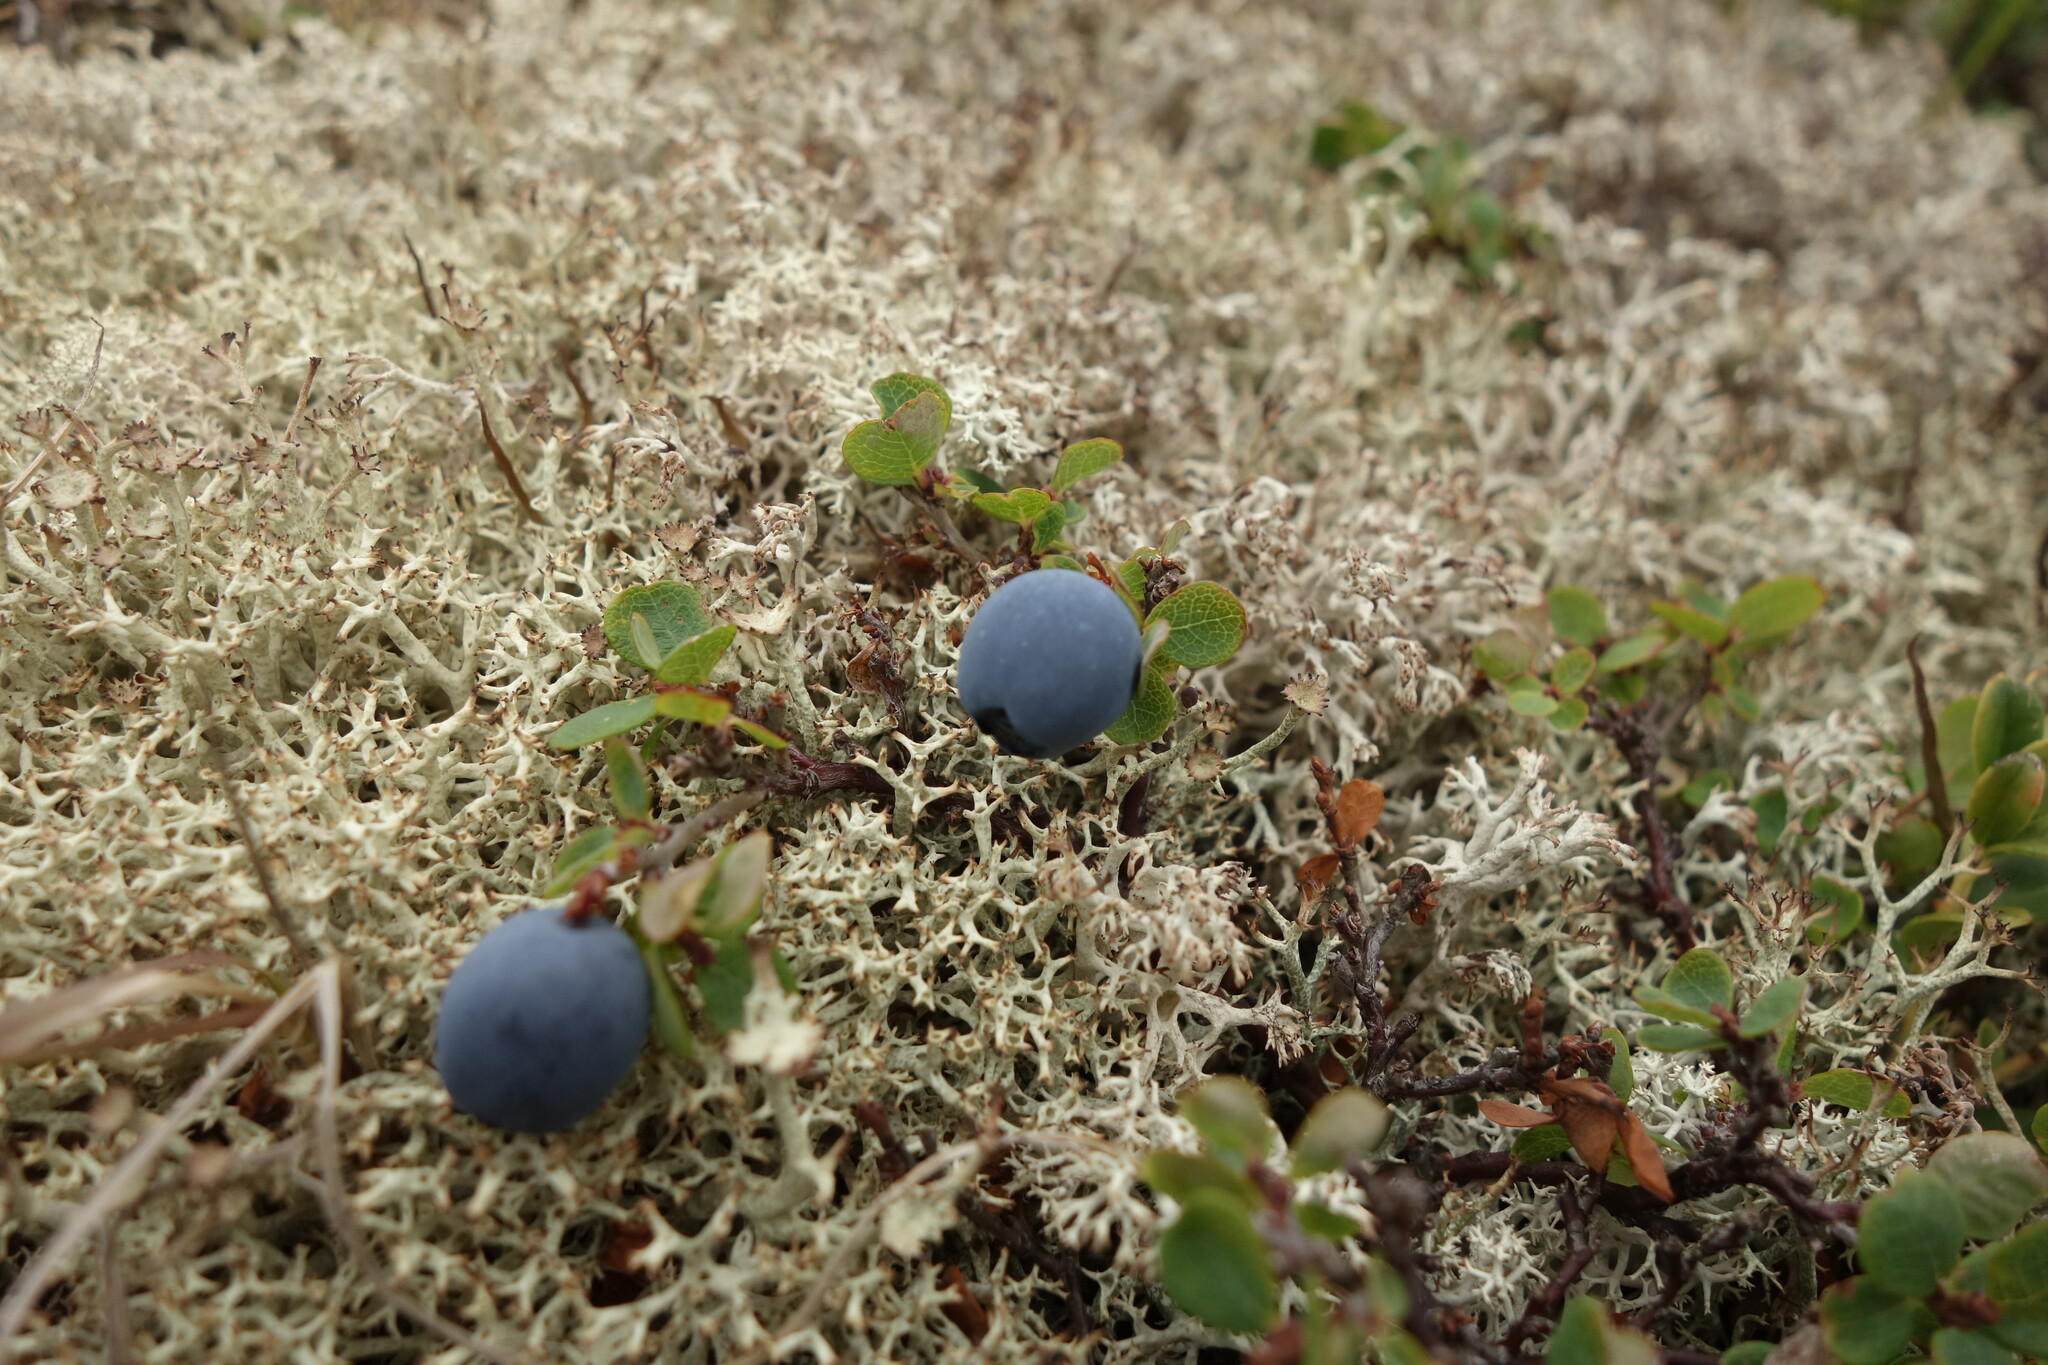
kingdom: Plantae
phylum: Tracheophyta
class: Magnoliopsida
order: Ericales
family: Ericaceae
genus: Vaccinium
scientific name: Vaccinium uliginosum
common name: Bog bilberry
